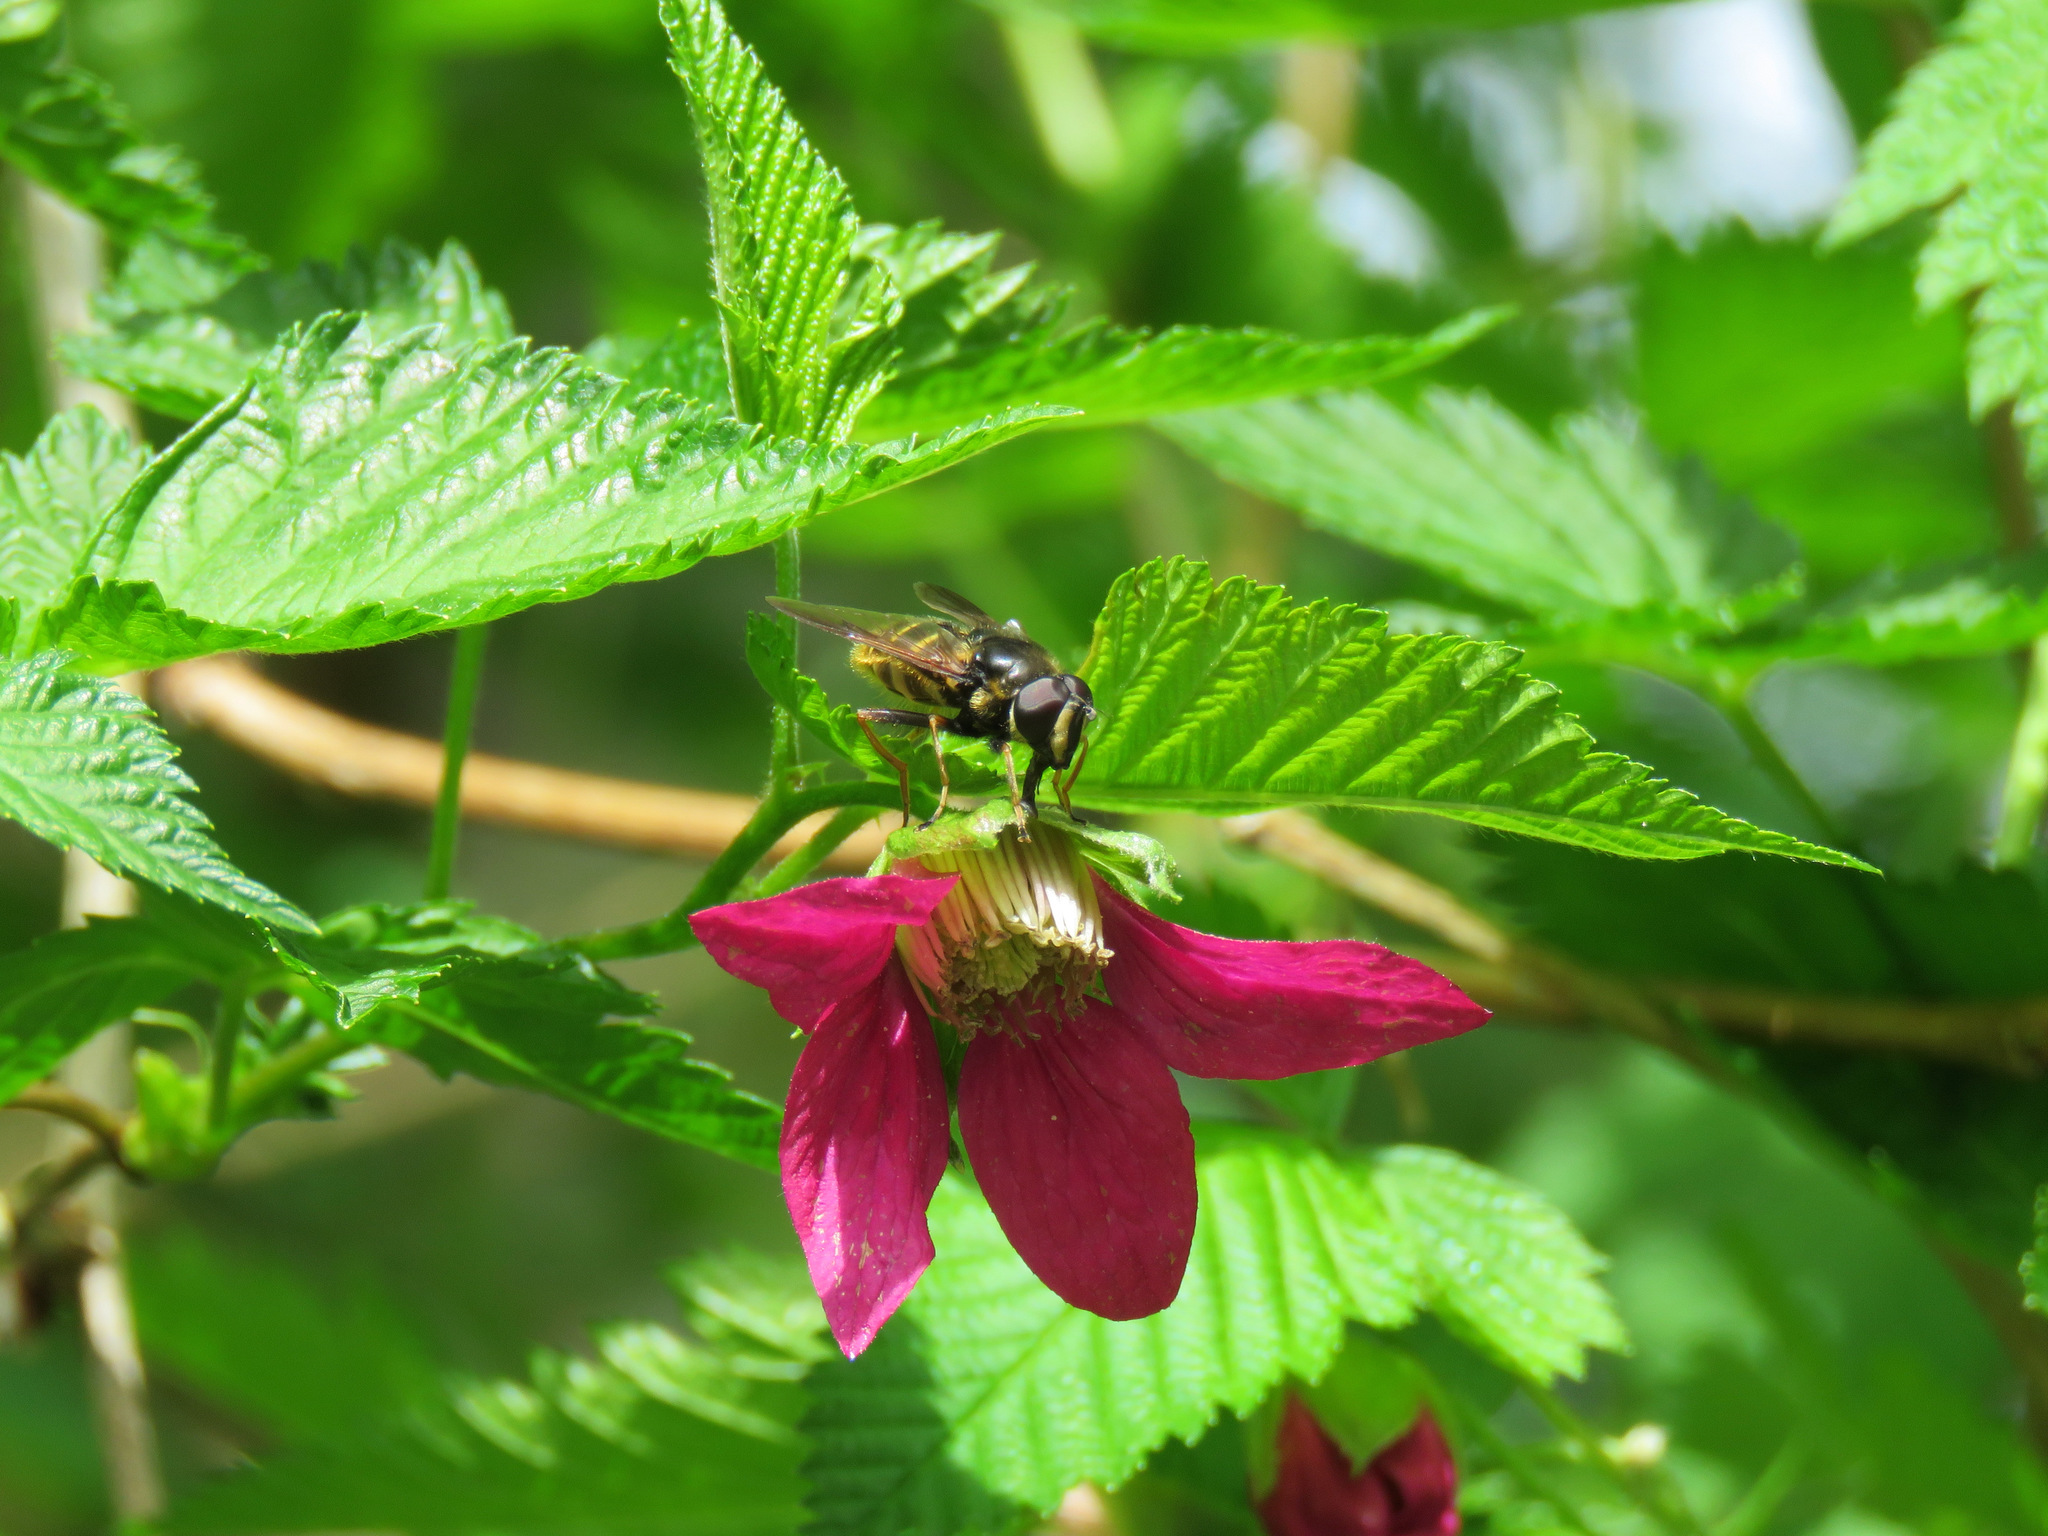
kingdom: Animalia
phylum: Arthropoda
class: Insecta
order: Diptera
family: Syrphidae
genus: Sericomyia
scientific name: Sericomyia chalcopyga
